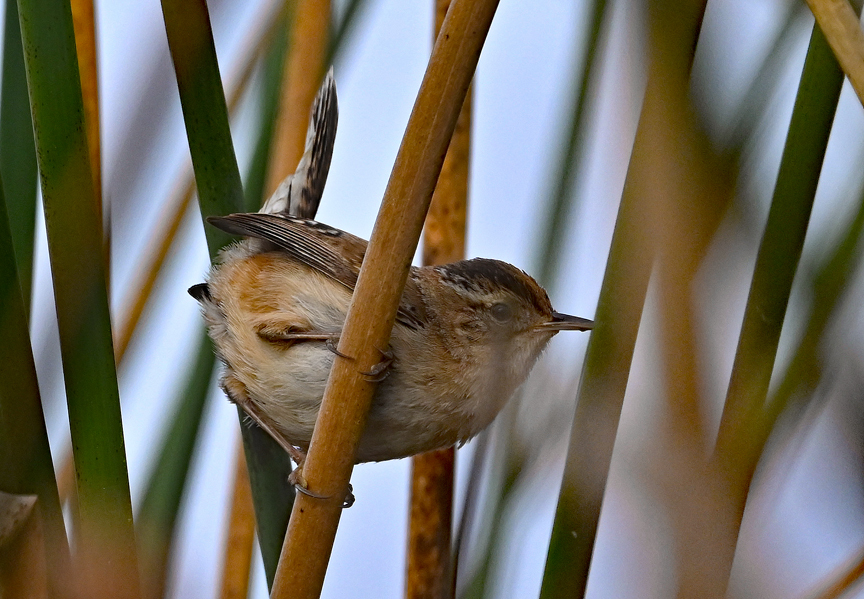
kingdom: Animalia
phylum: Chordata
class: Aves
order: Passeriformes
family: Troglodytidae
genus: Cistothorus
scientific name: Cistothorus palustris
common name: Marsh wren
